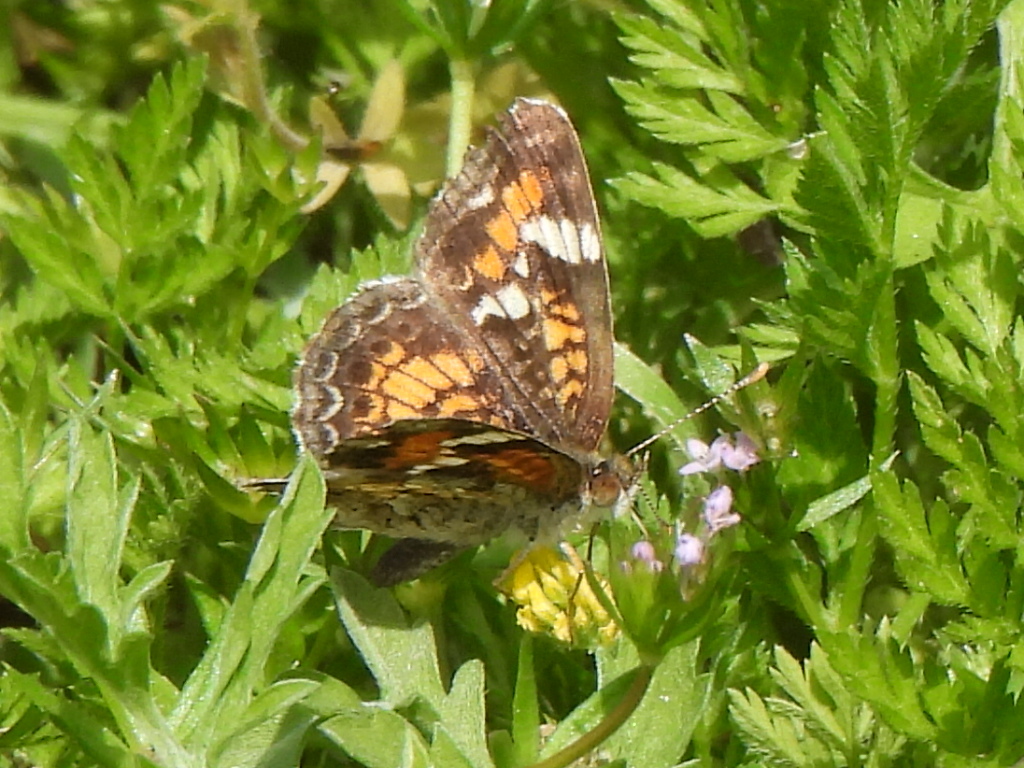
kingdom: Animalia
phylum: Arthropoda
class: Insecta
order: Lepidoptera
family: Nymphalidae
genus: Phyciodes
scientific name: Phyciodes phaon
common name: Phaon crescent
